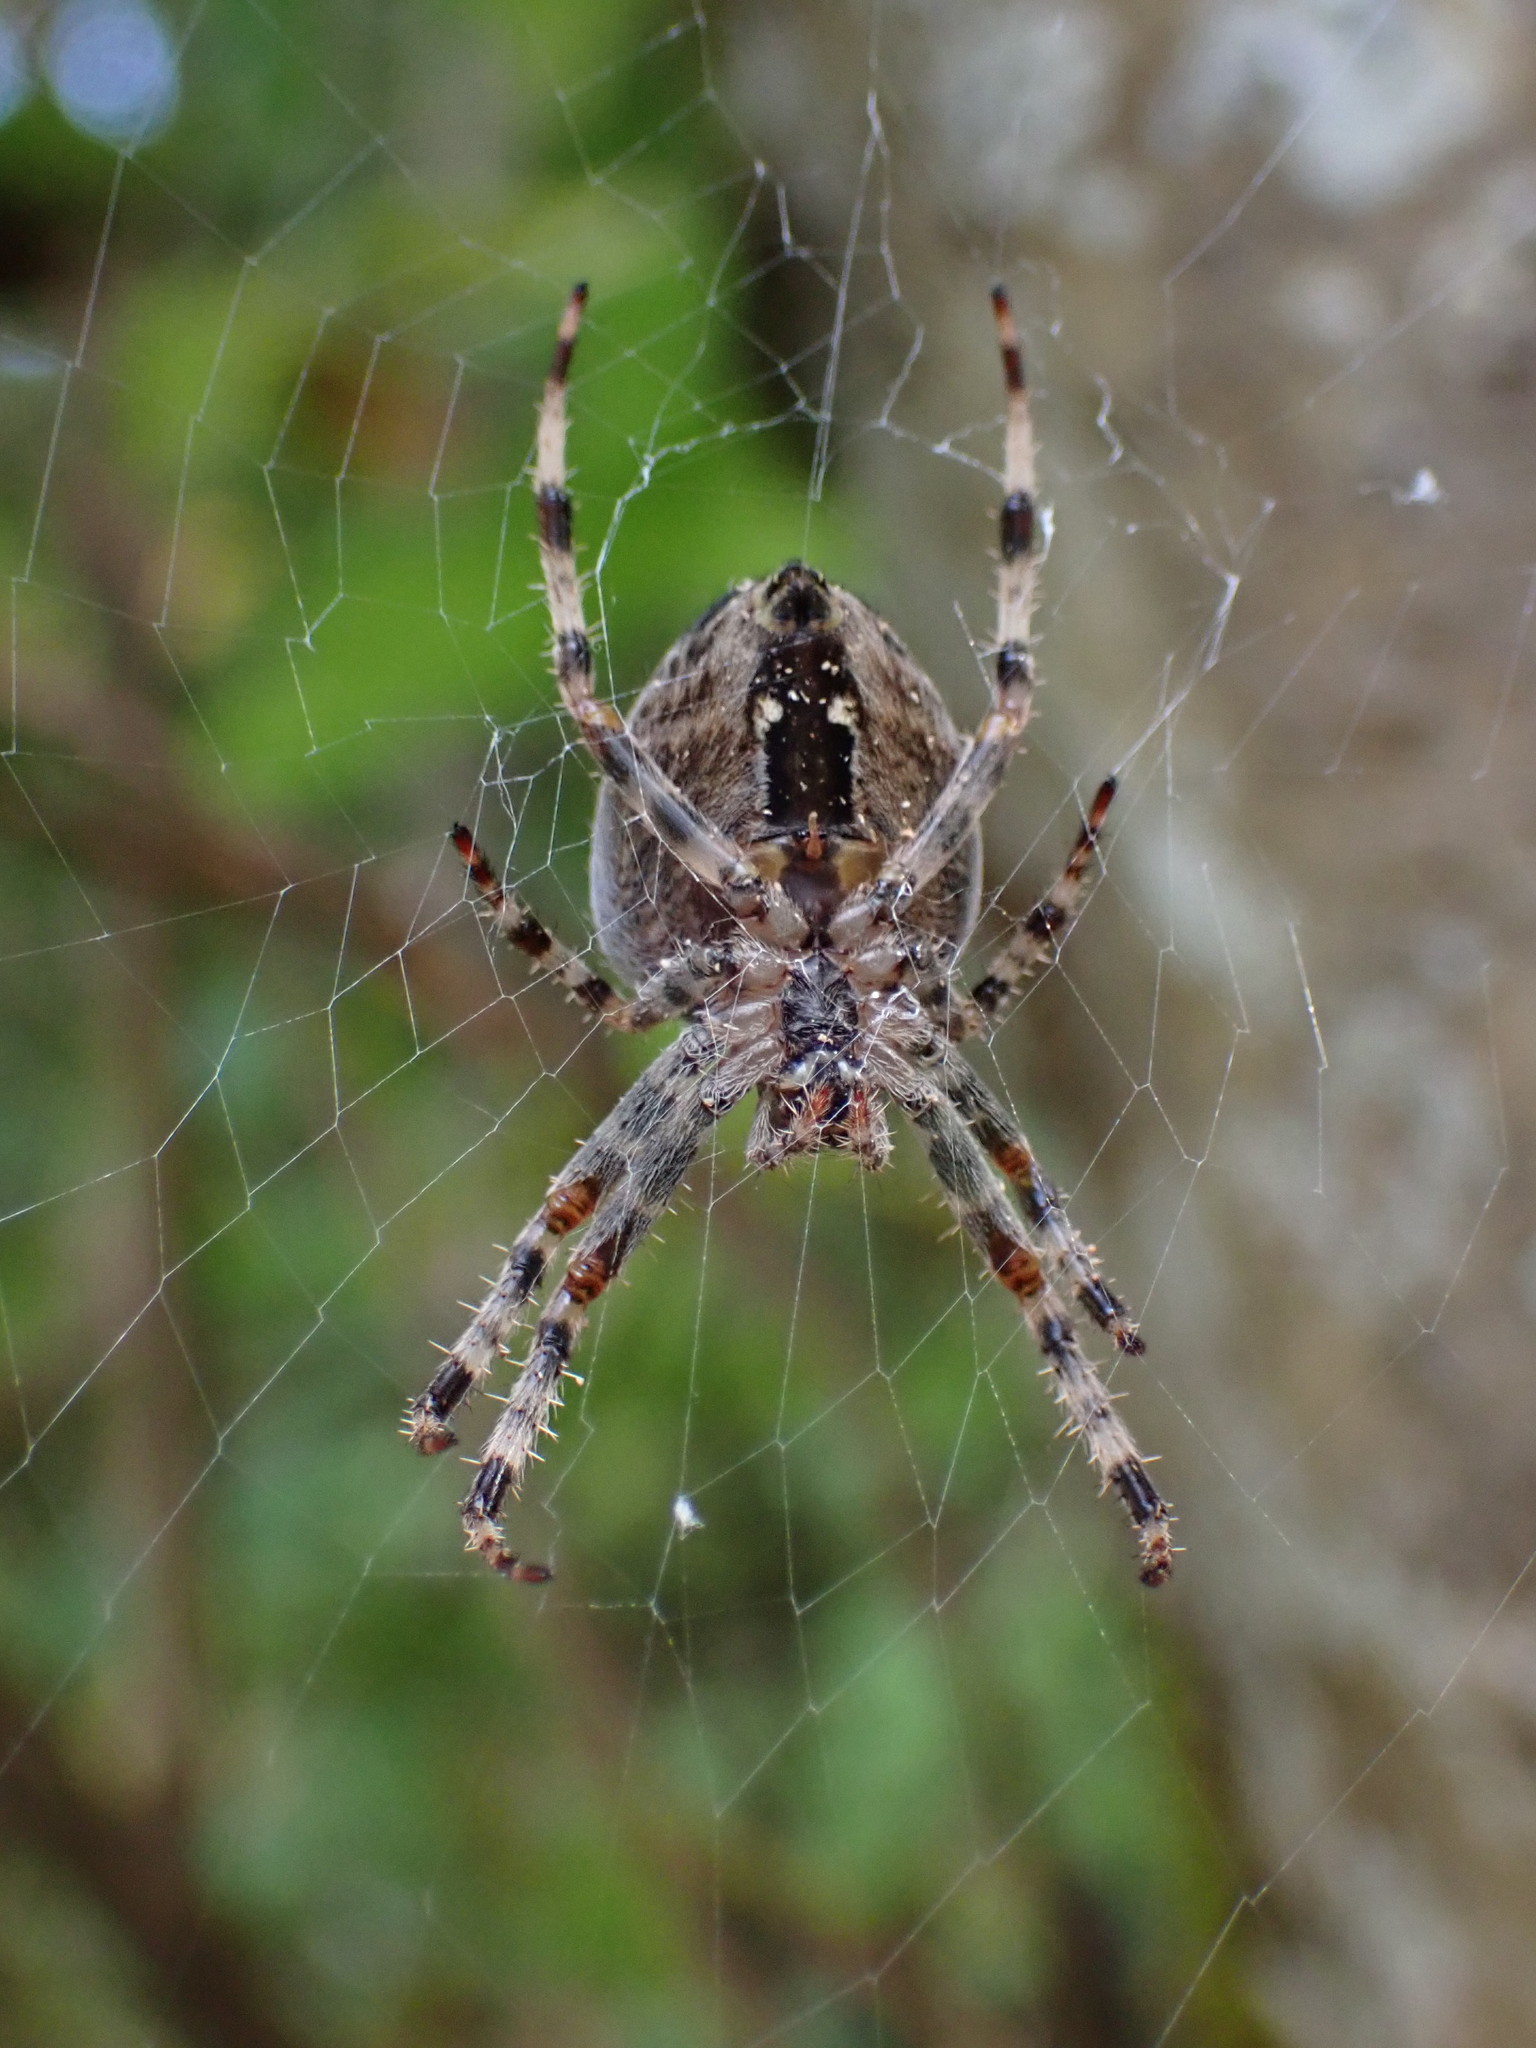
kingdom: Animalia
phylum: Arthropoda
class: Arachnida
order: Araneae
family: Araneidae
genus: Araneus
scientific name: Araneus diadematus
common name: Cross orbweaver
